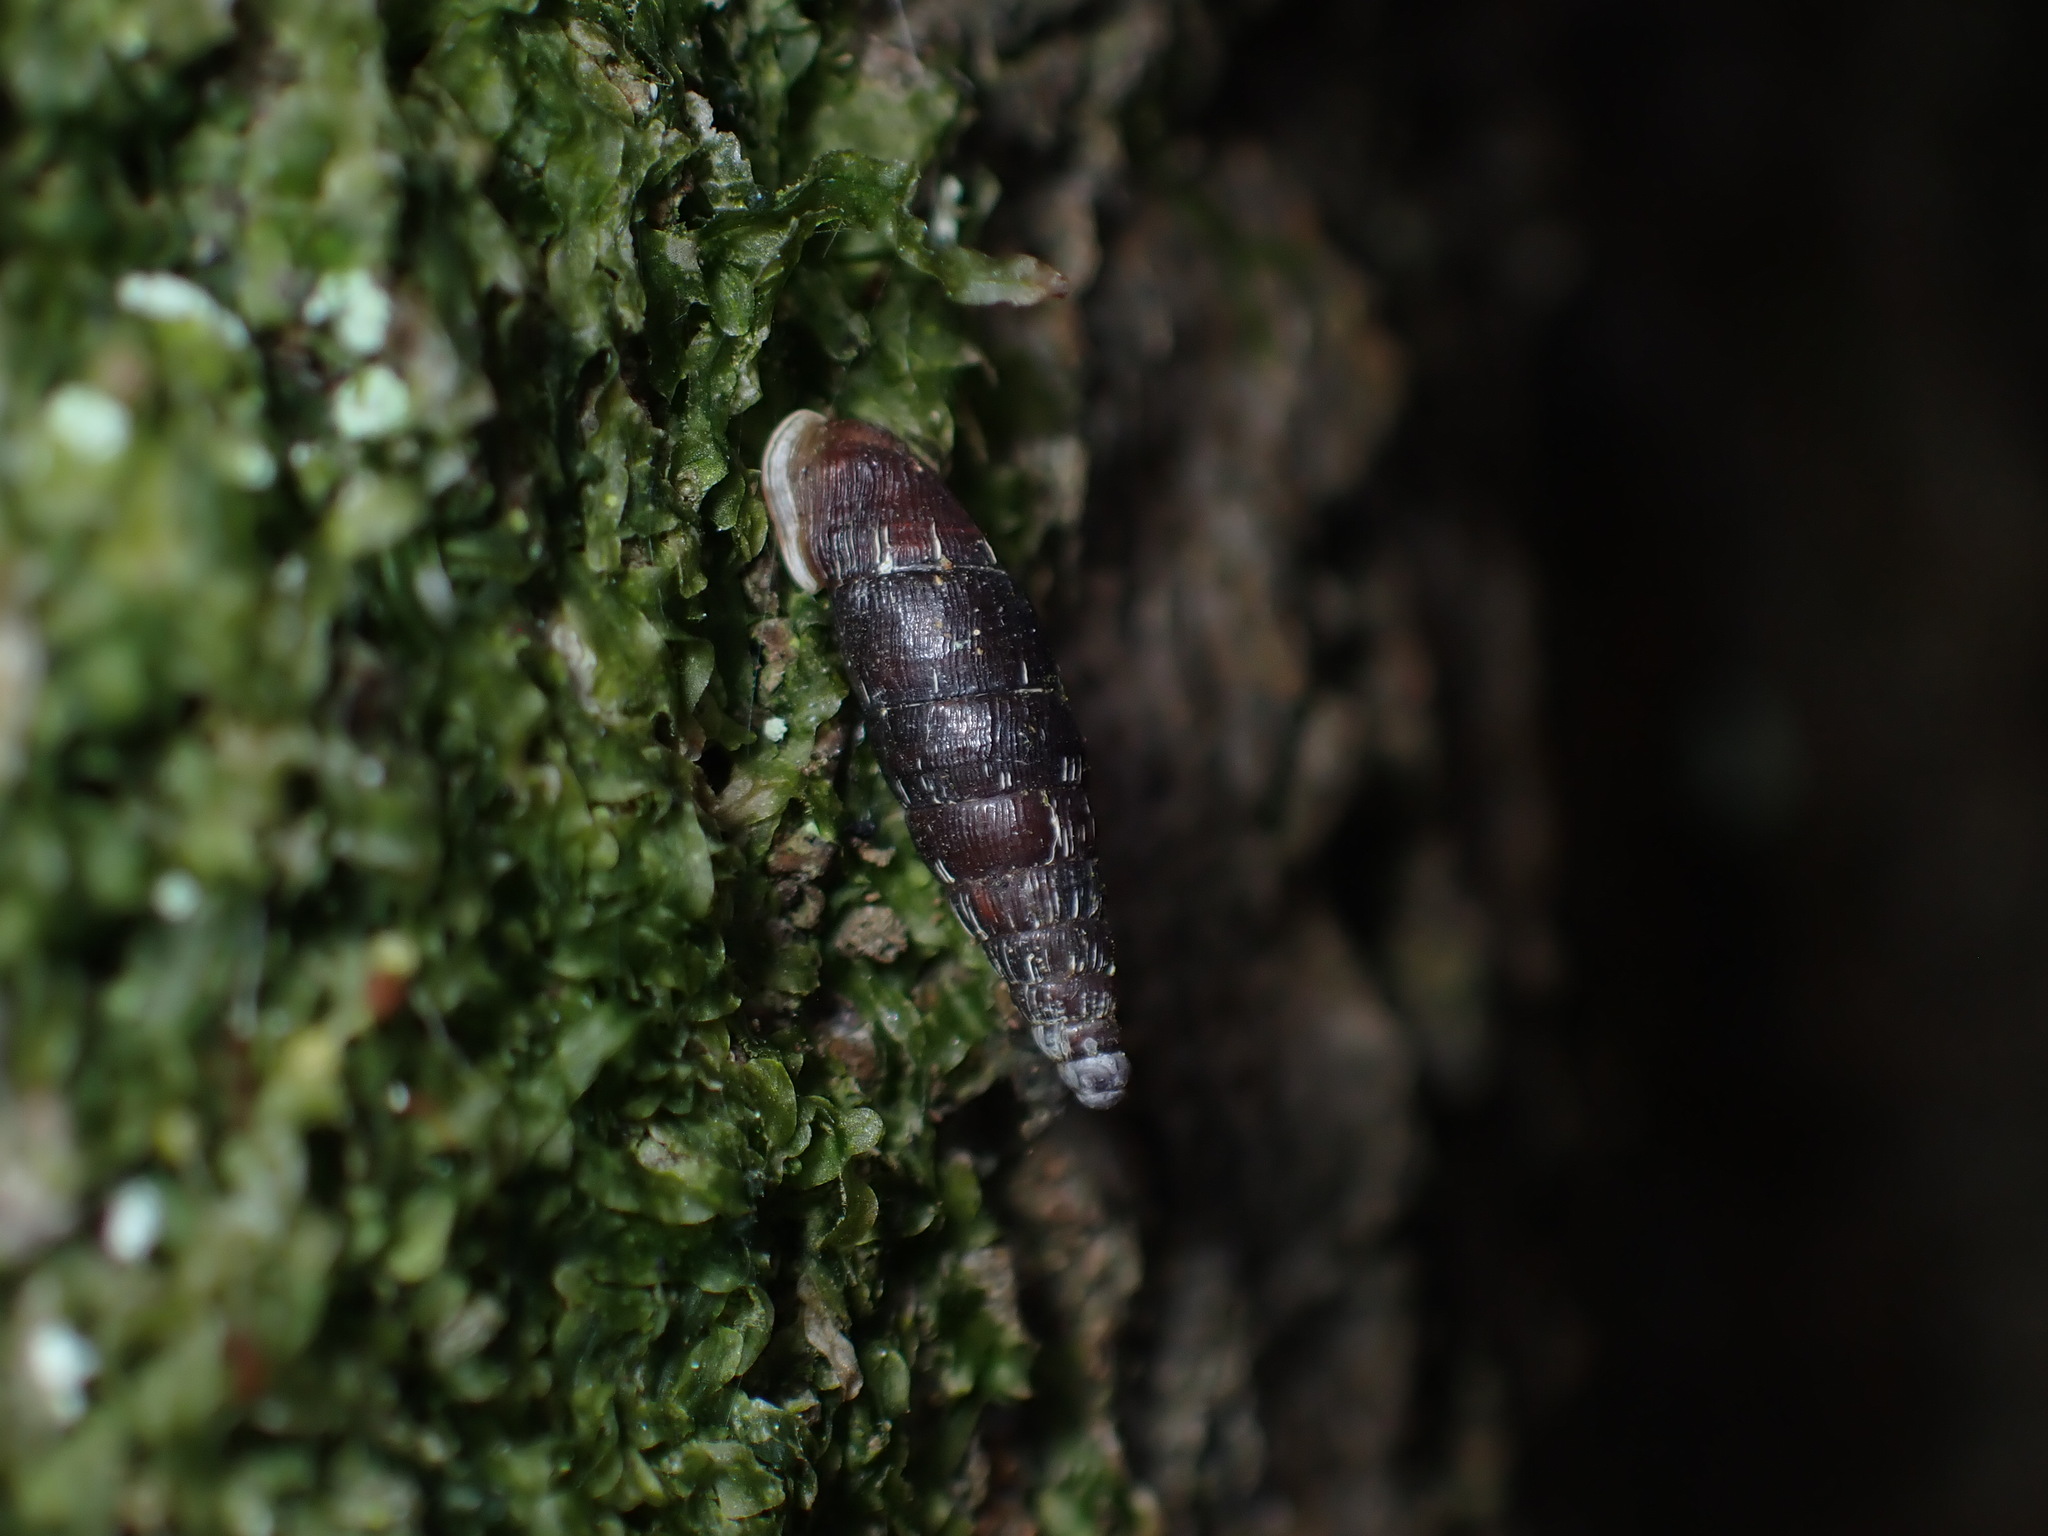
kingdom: Animalia
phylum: Mollusca
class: Gastropoda
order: Stylommatophora
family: Clausiliidae
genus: Clausilia
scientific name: Clausilia bidentata
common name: Two-toothed door snail
